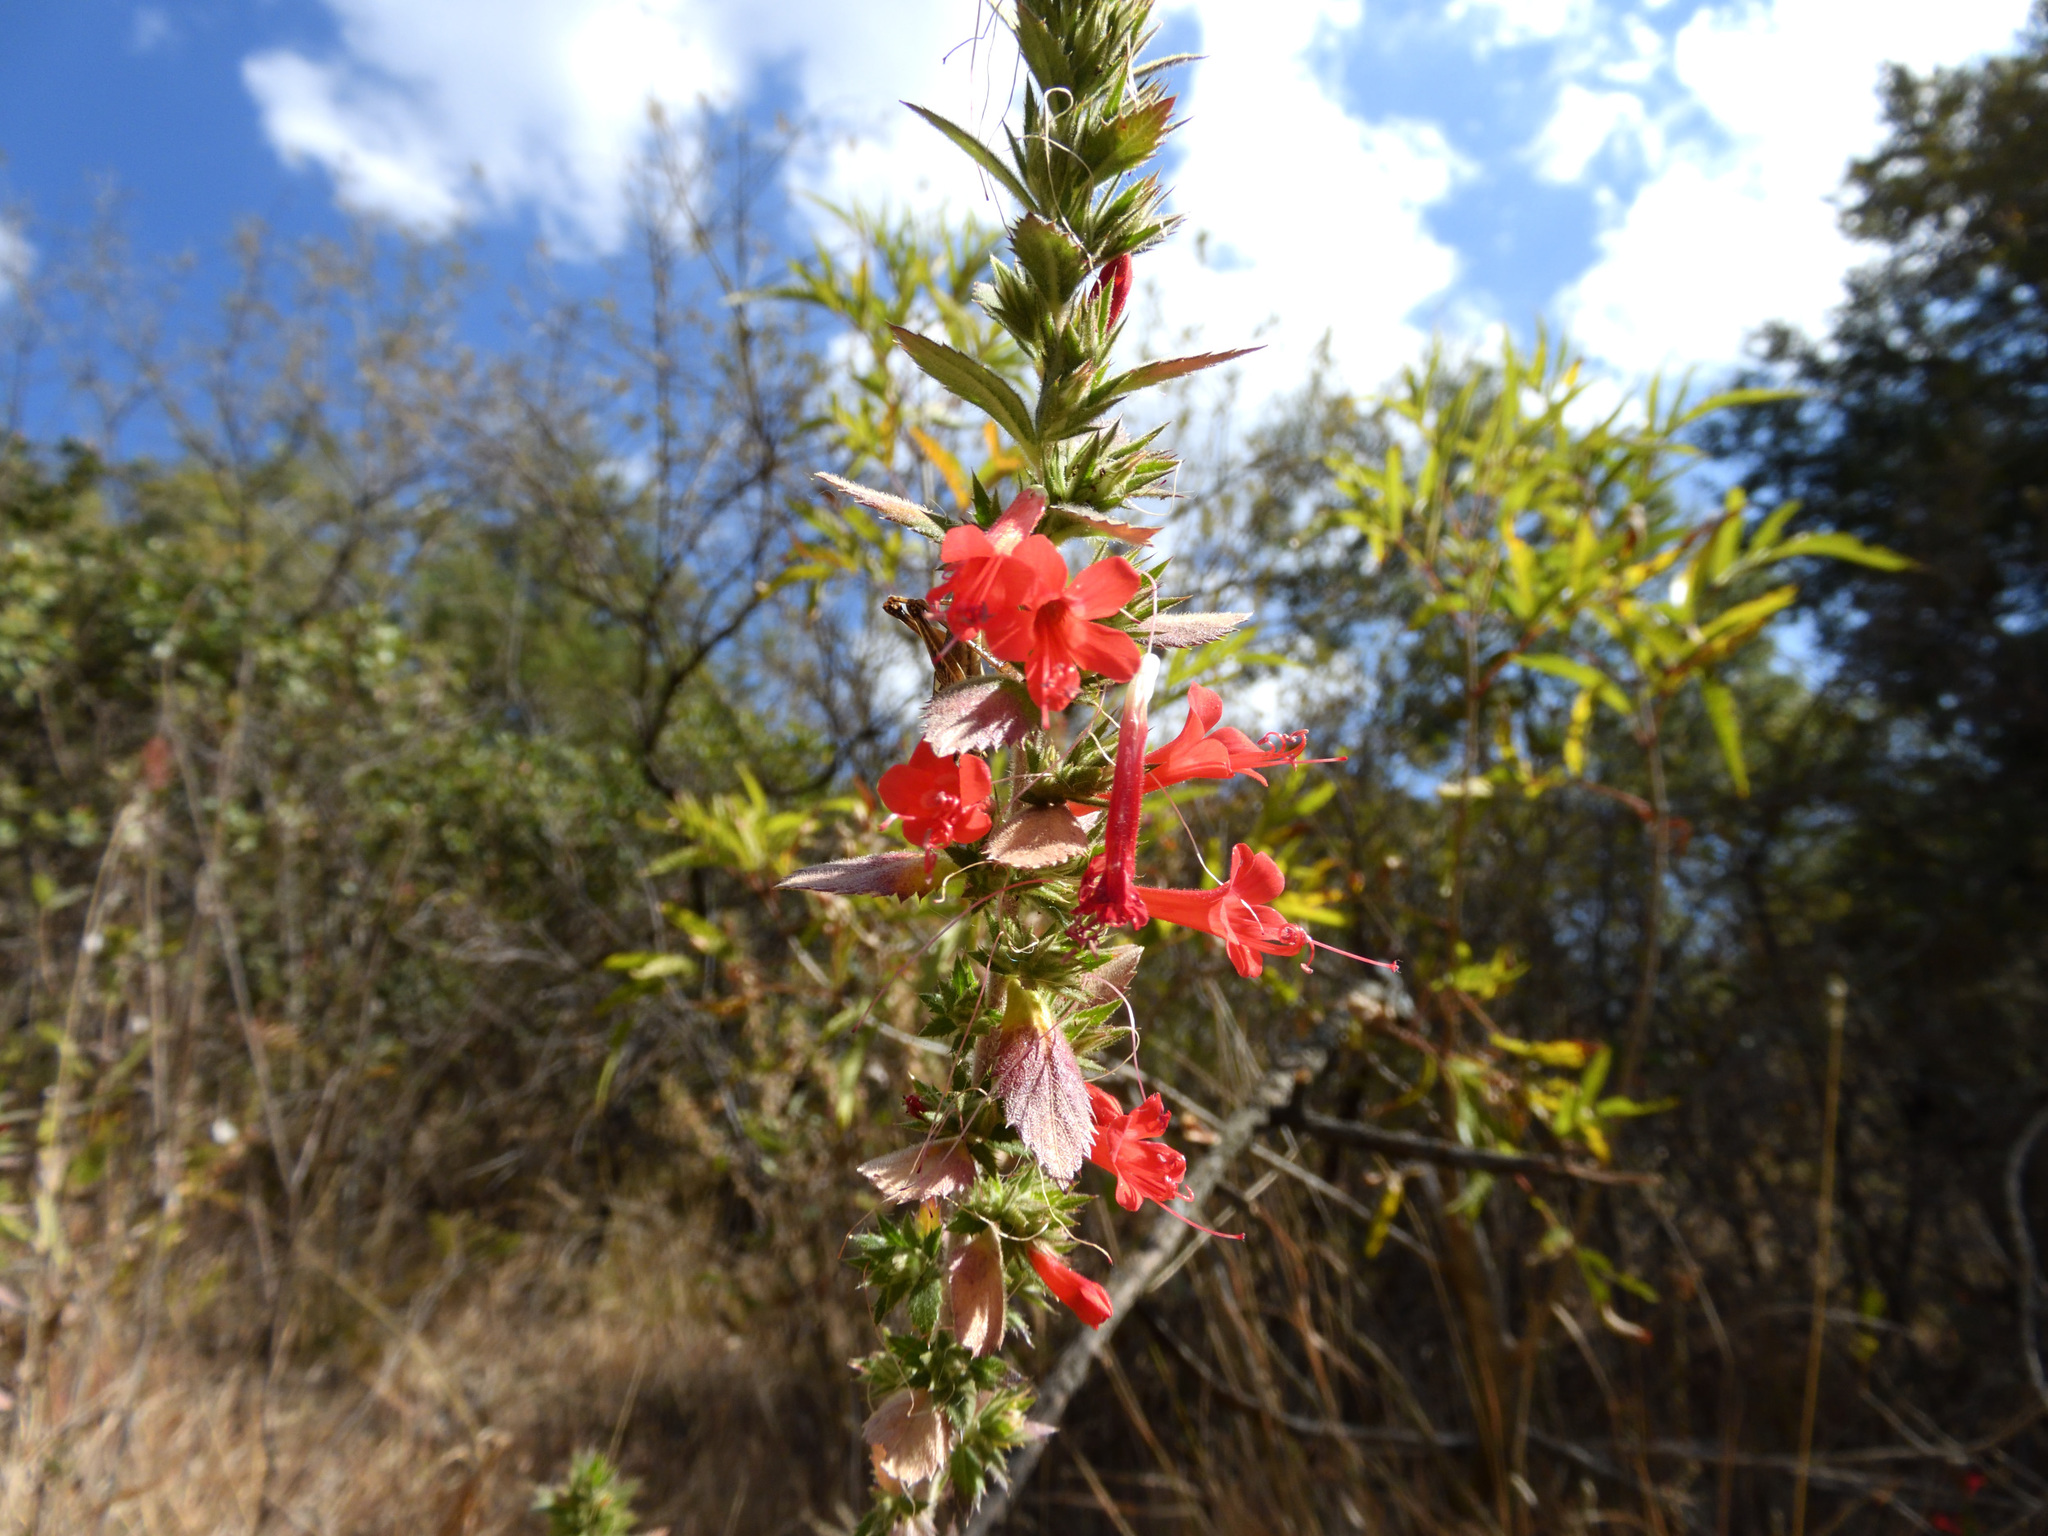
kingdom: Plantae
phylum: Tracheophyta
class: Magnoliopsida
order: Ericales
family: Polemoniaceae
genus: Loeselia
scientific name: Loeselia mexicana
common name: Mexican false calico
